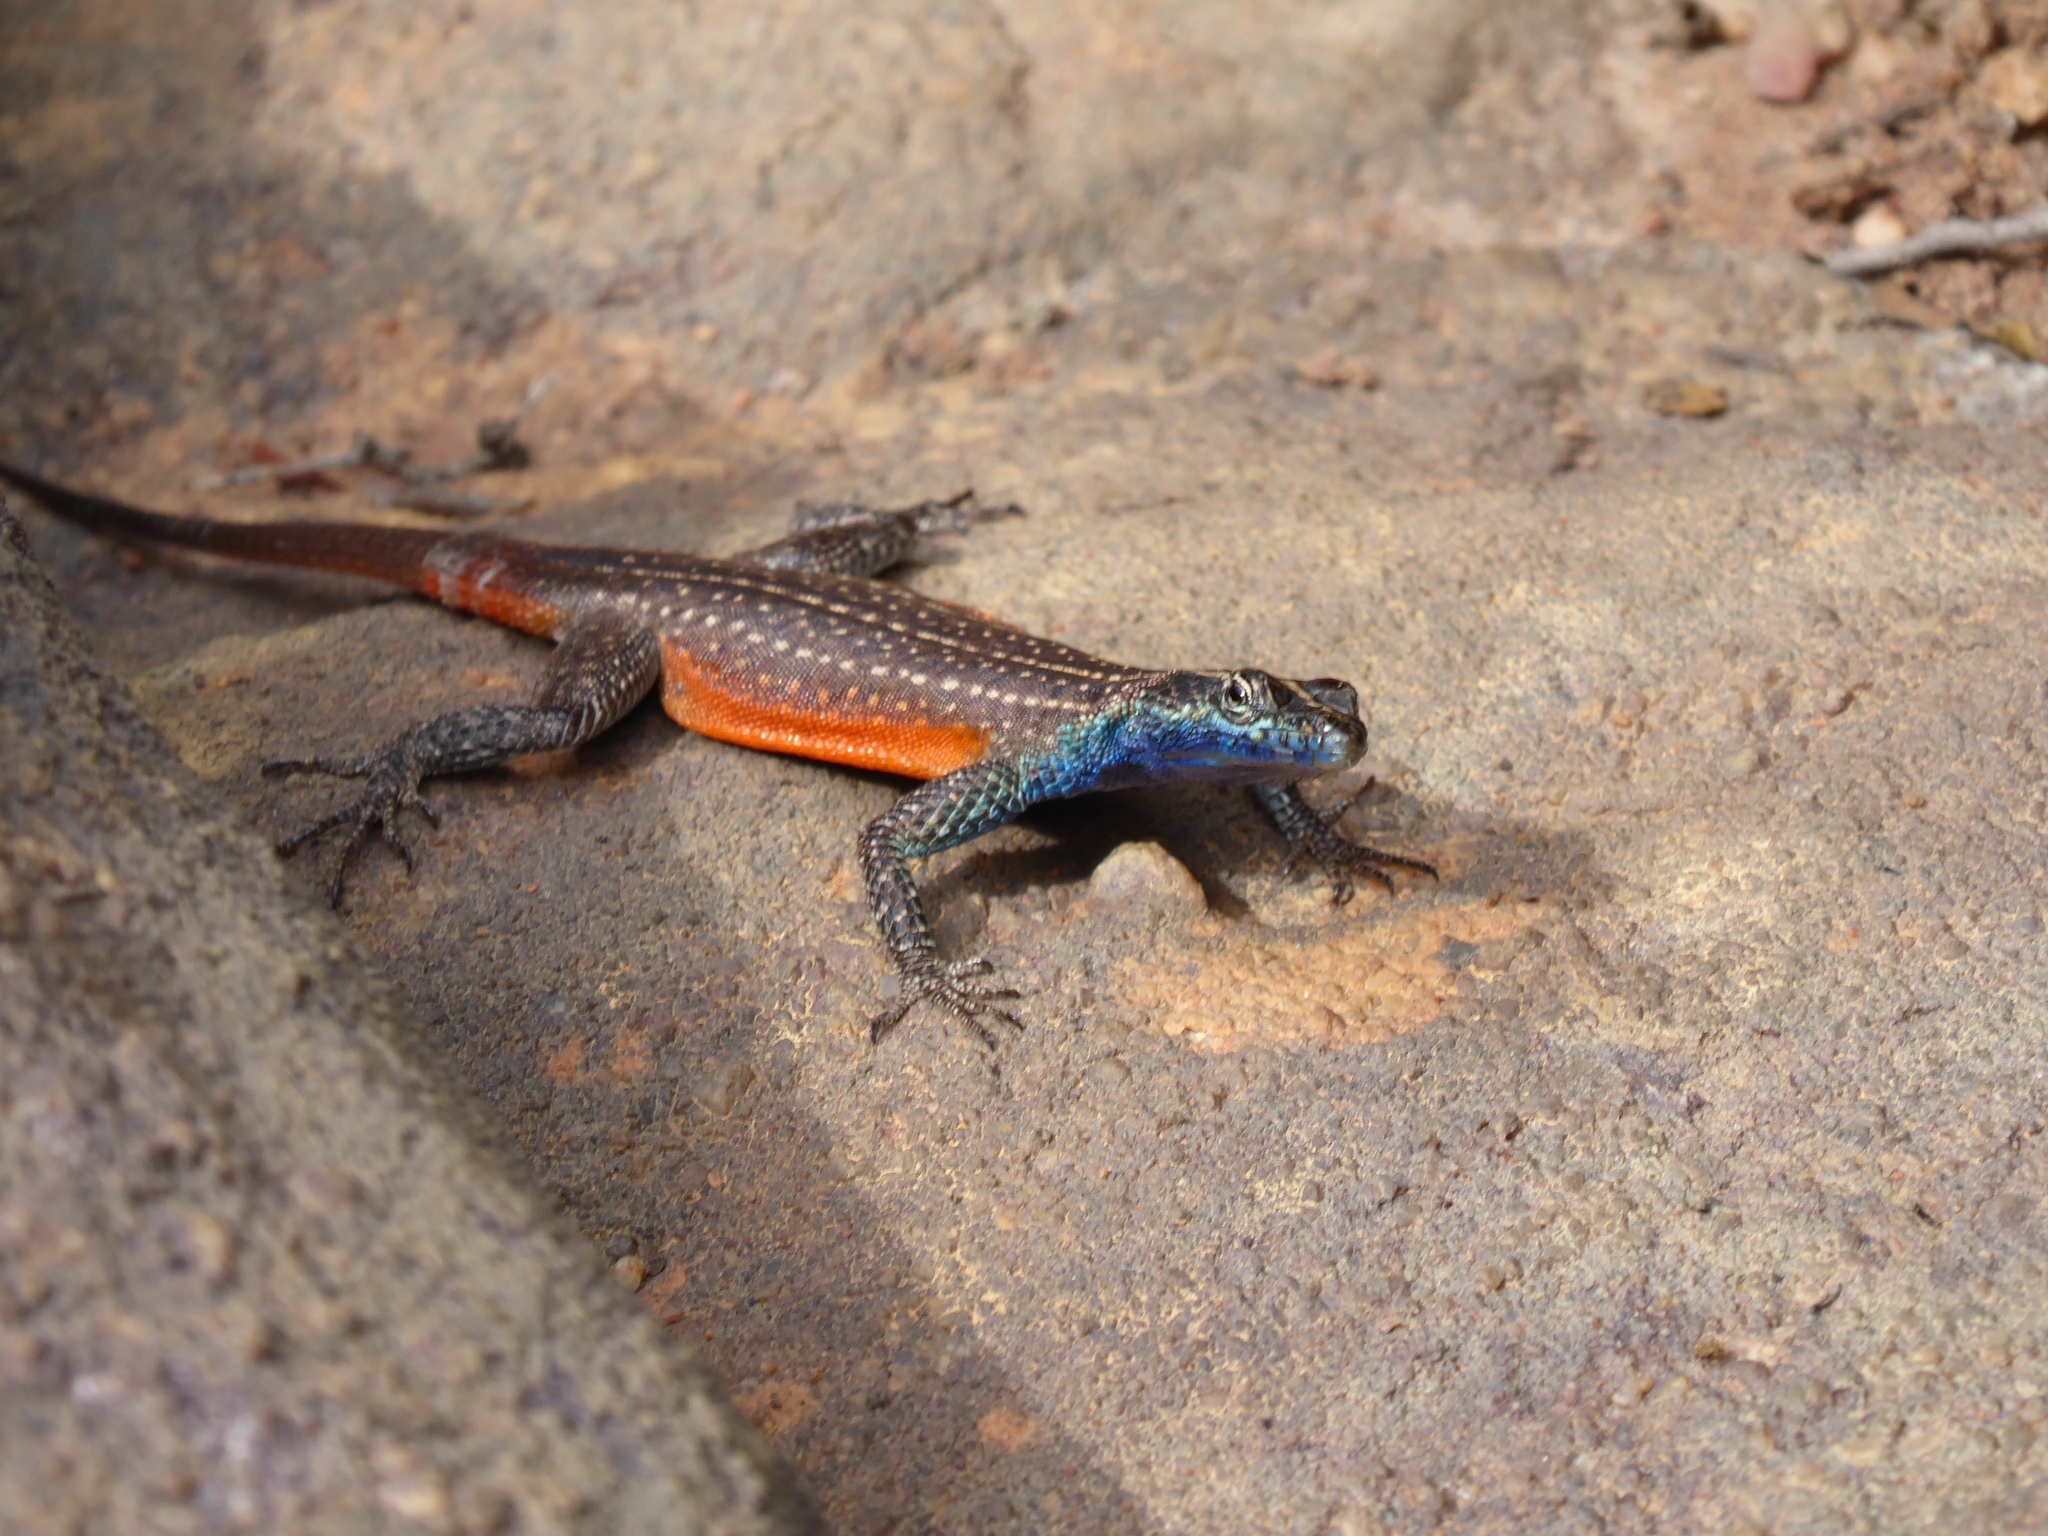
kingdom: Animalia
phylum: Chordata
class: Squamata
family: Cordylidae
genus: Platysaurus
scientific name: Platysaurus minor
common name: Waterberg flat lizard
